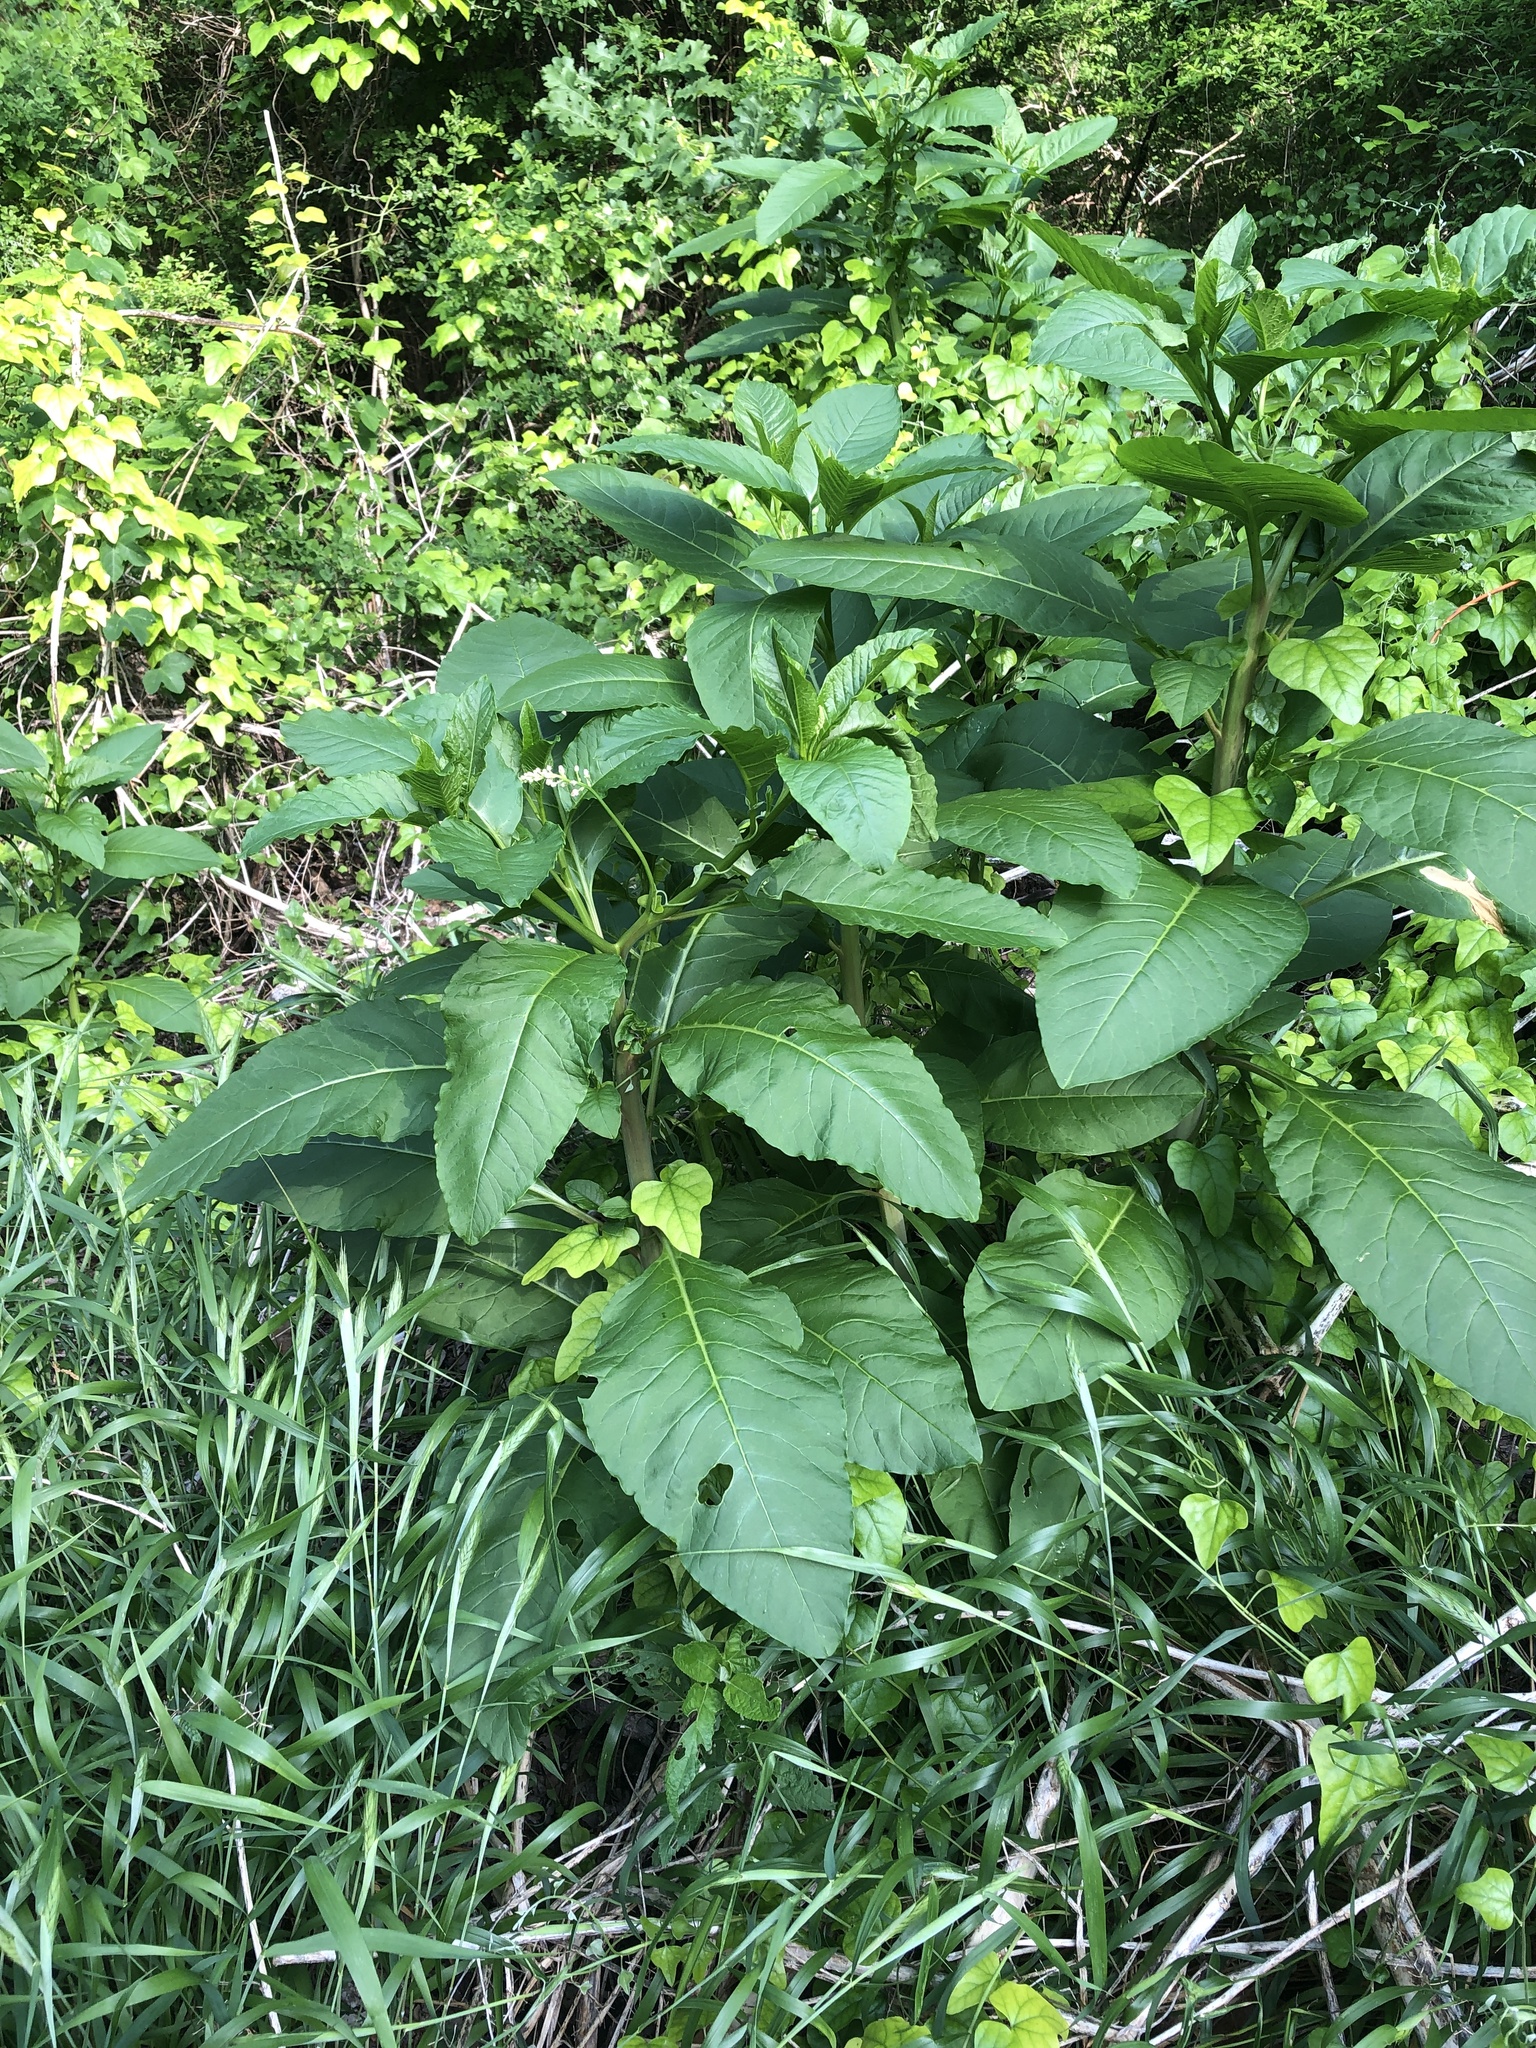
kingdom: Plantae
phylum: Tracheophyta
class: Magnoliopsida
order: Caryophyllales
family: Phytolaccaceae
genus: Phytolacca
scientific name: Phytolacca americana
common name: American pokeweed
